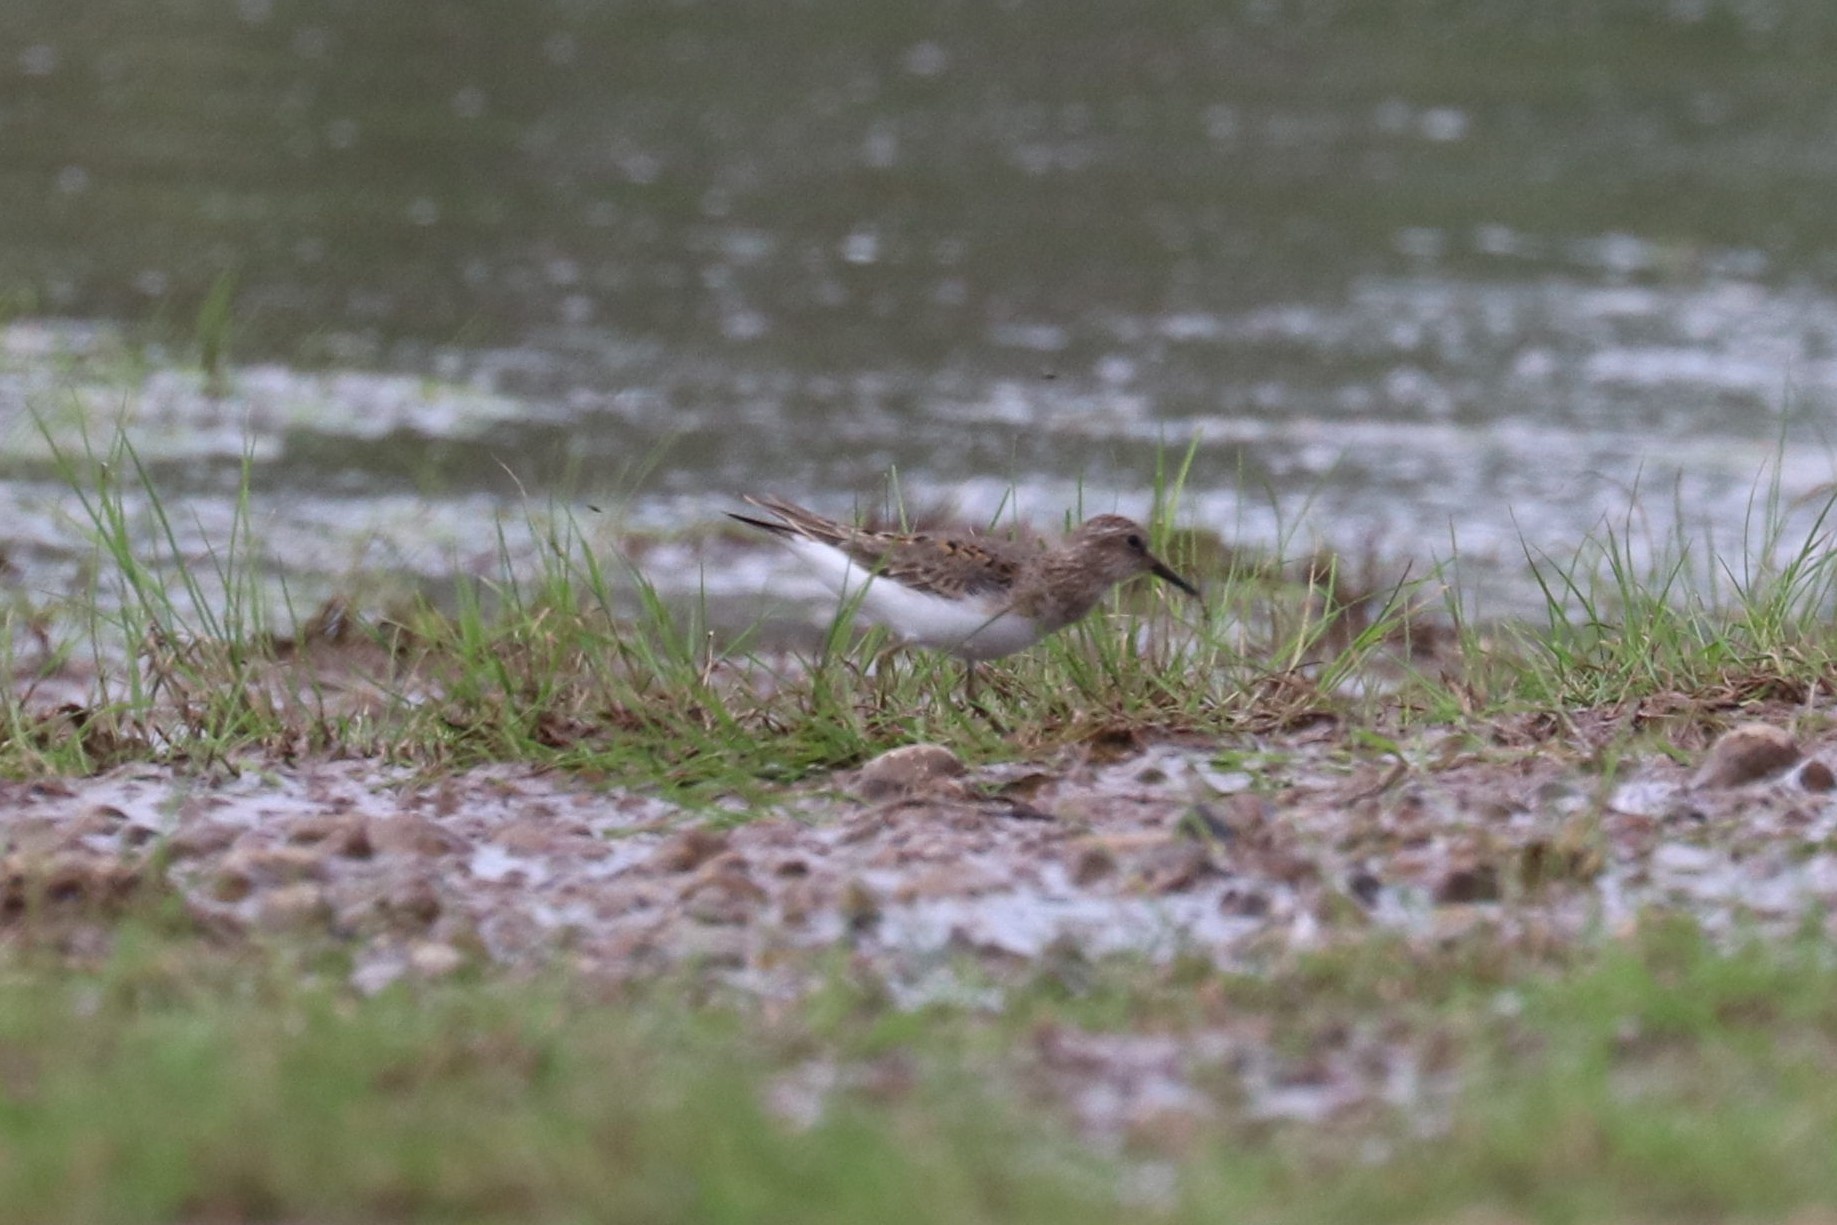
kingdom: Animalia
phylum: Chordata
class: Aves
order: Charadriiformes
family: Scolopacidae
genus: Calidris
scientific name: Calidris temminckii
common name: Temminck's stint
